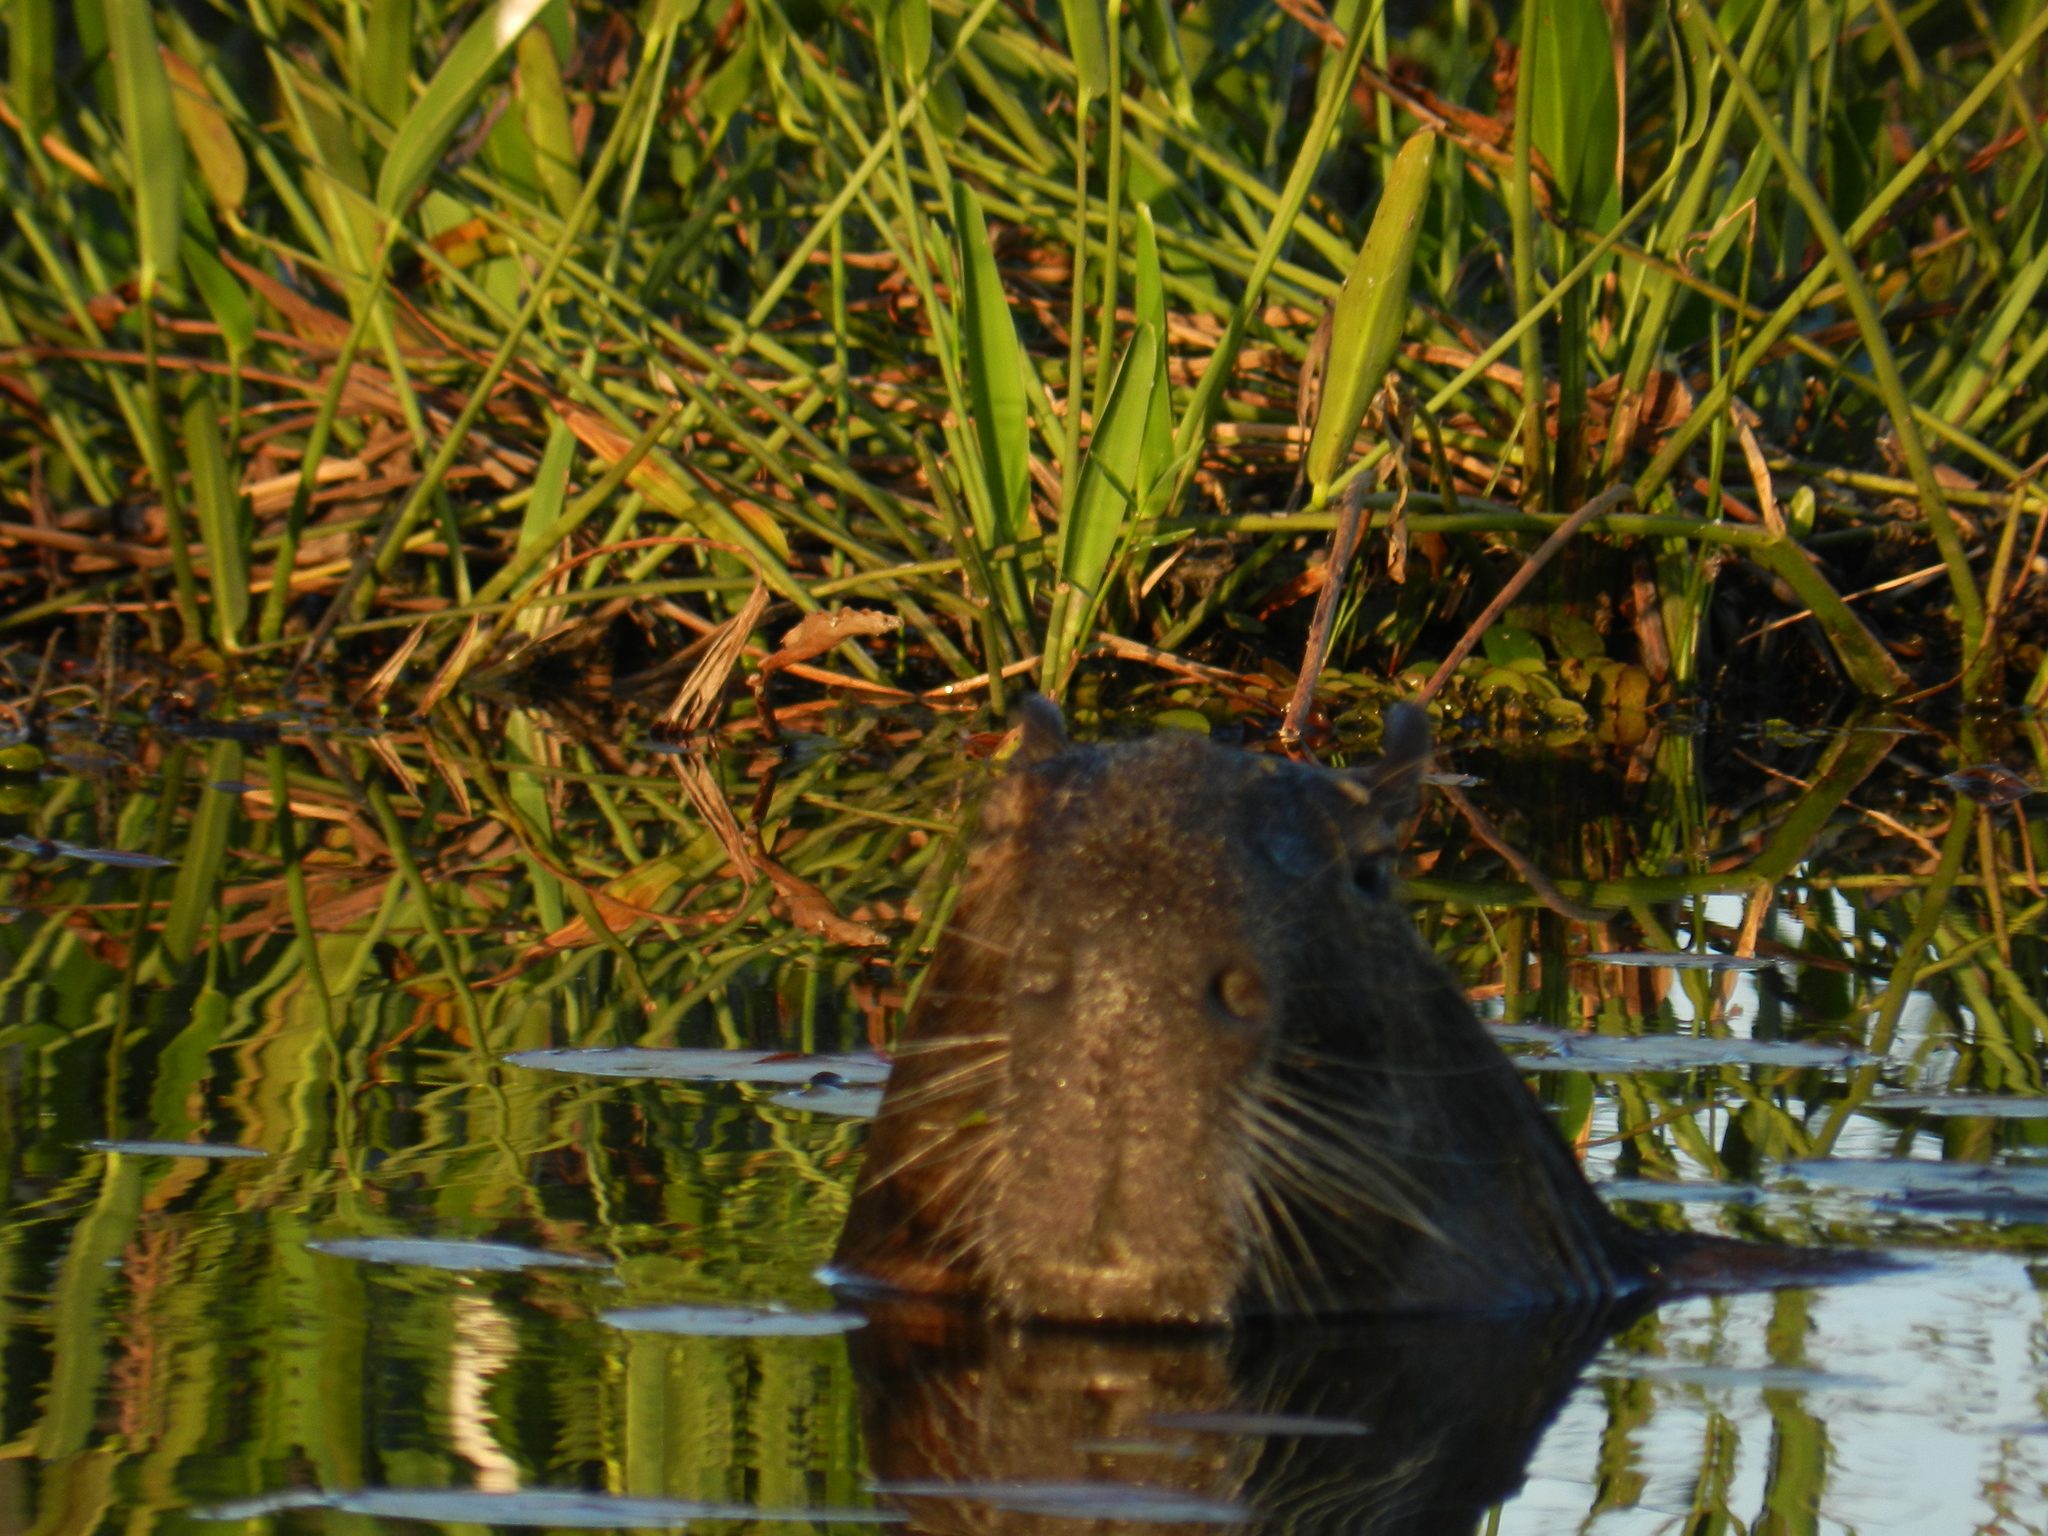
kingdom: Animalia
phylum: Chordata
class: Mammalia
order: Rodentia
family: Caviidae
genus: Hydrochoerus
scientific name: Hydrochoerus hydrochaeris
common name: Capybara
